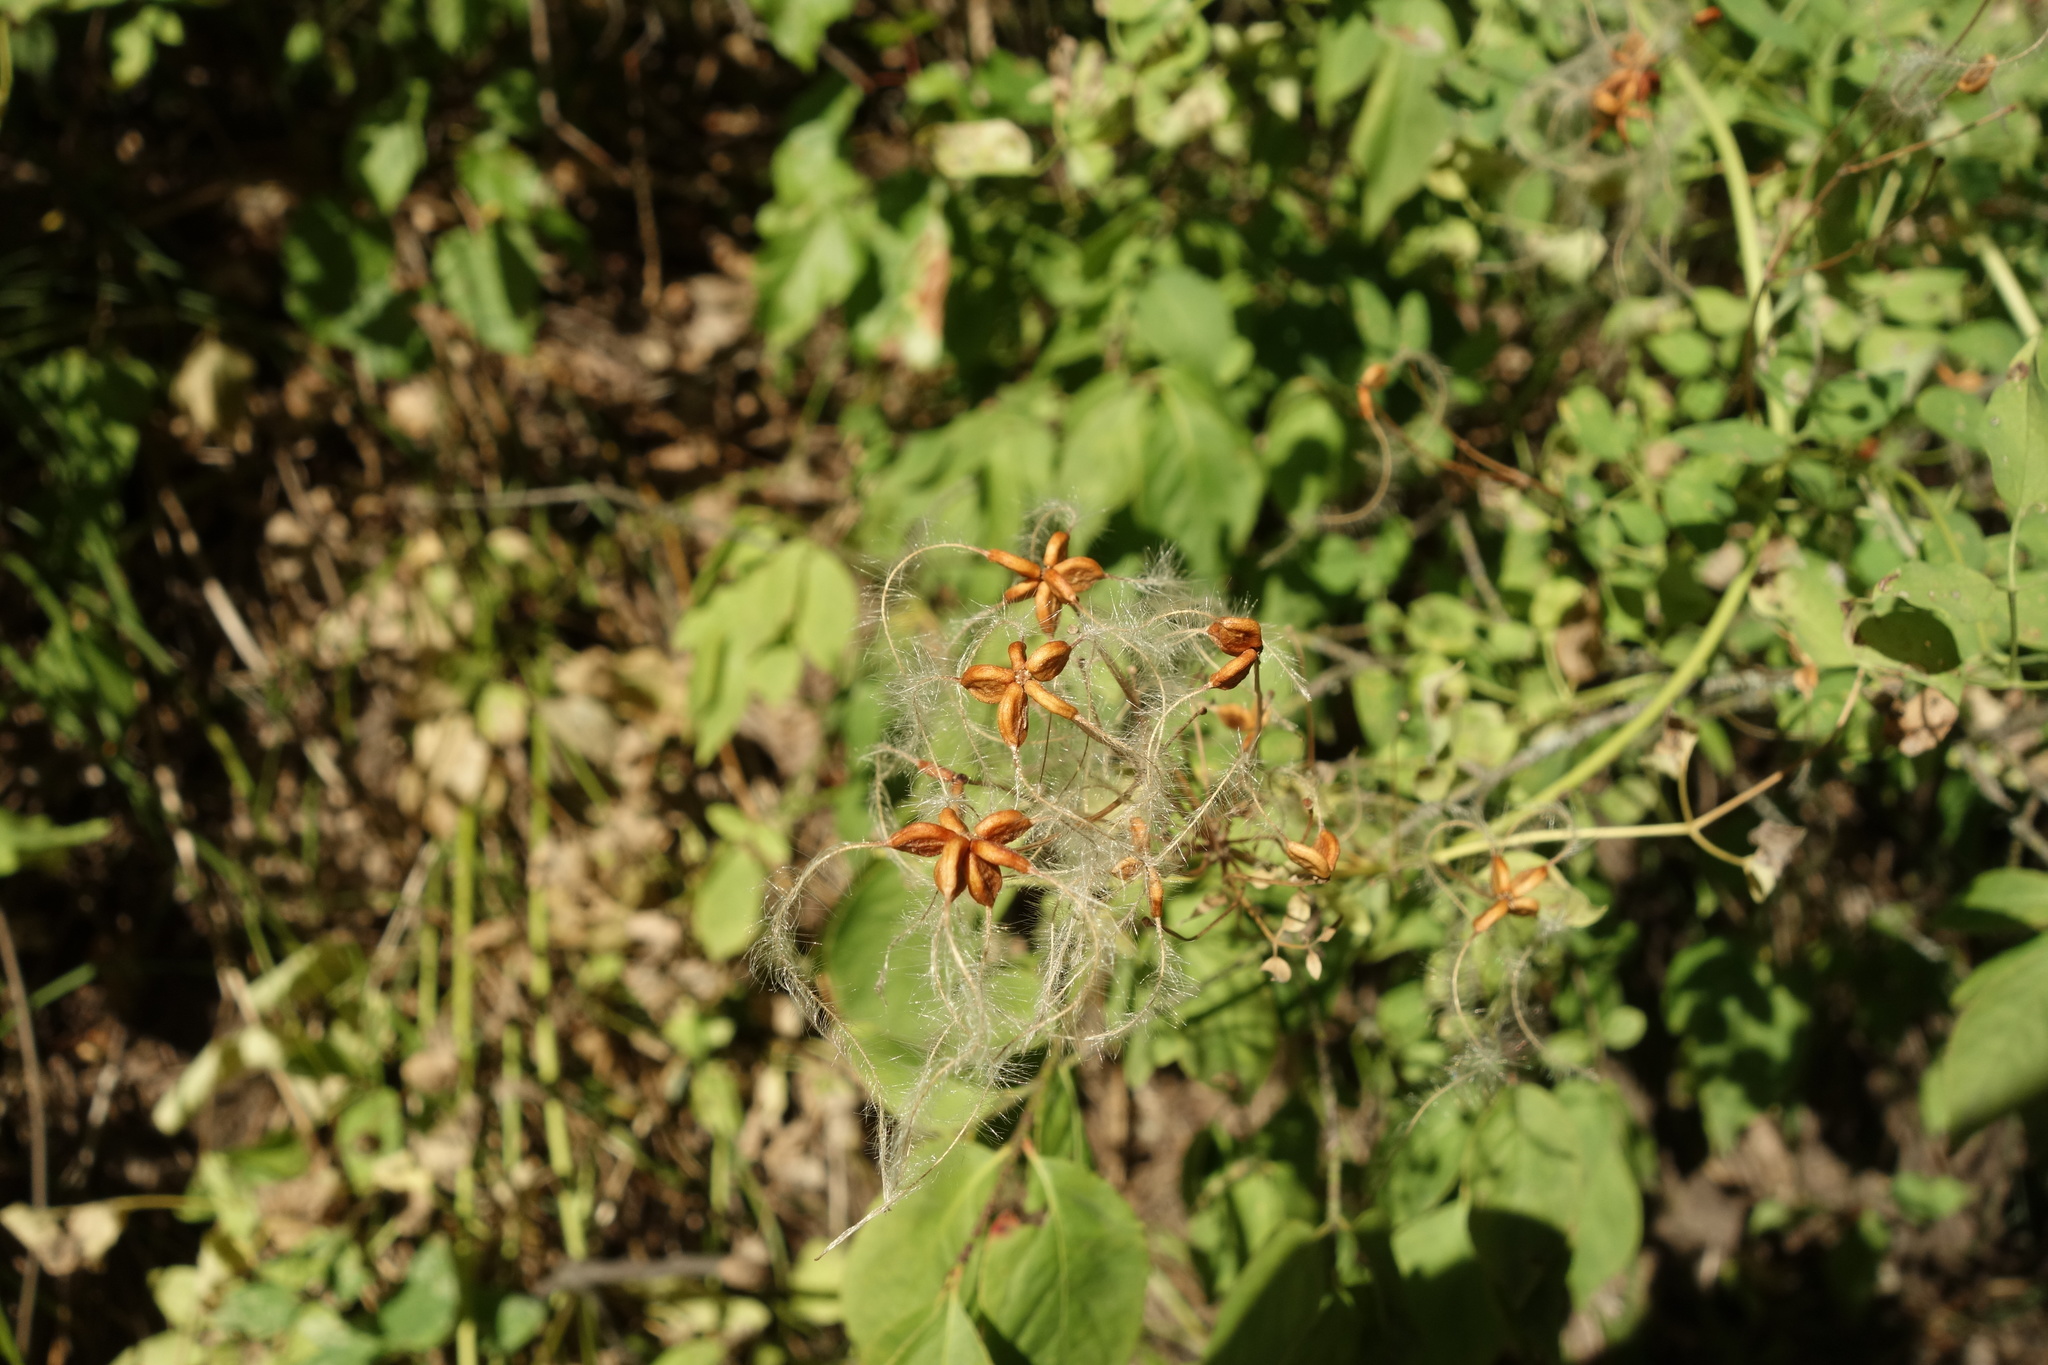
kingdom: Plantae
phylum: Tracheophyta
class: Magnoliopsida
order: Ranunculales
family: Ranunculaceae
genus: Clematis
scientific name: Clematis lathyrifolia
